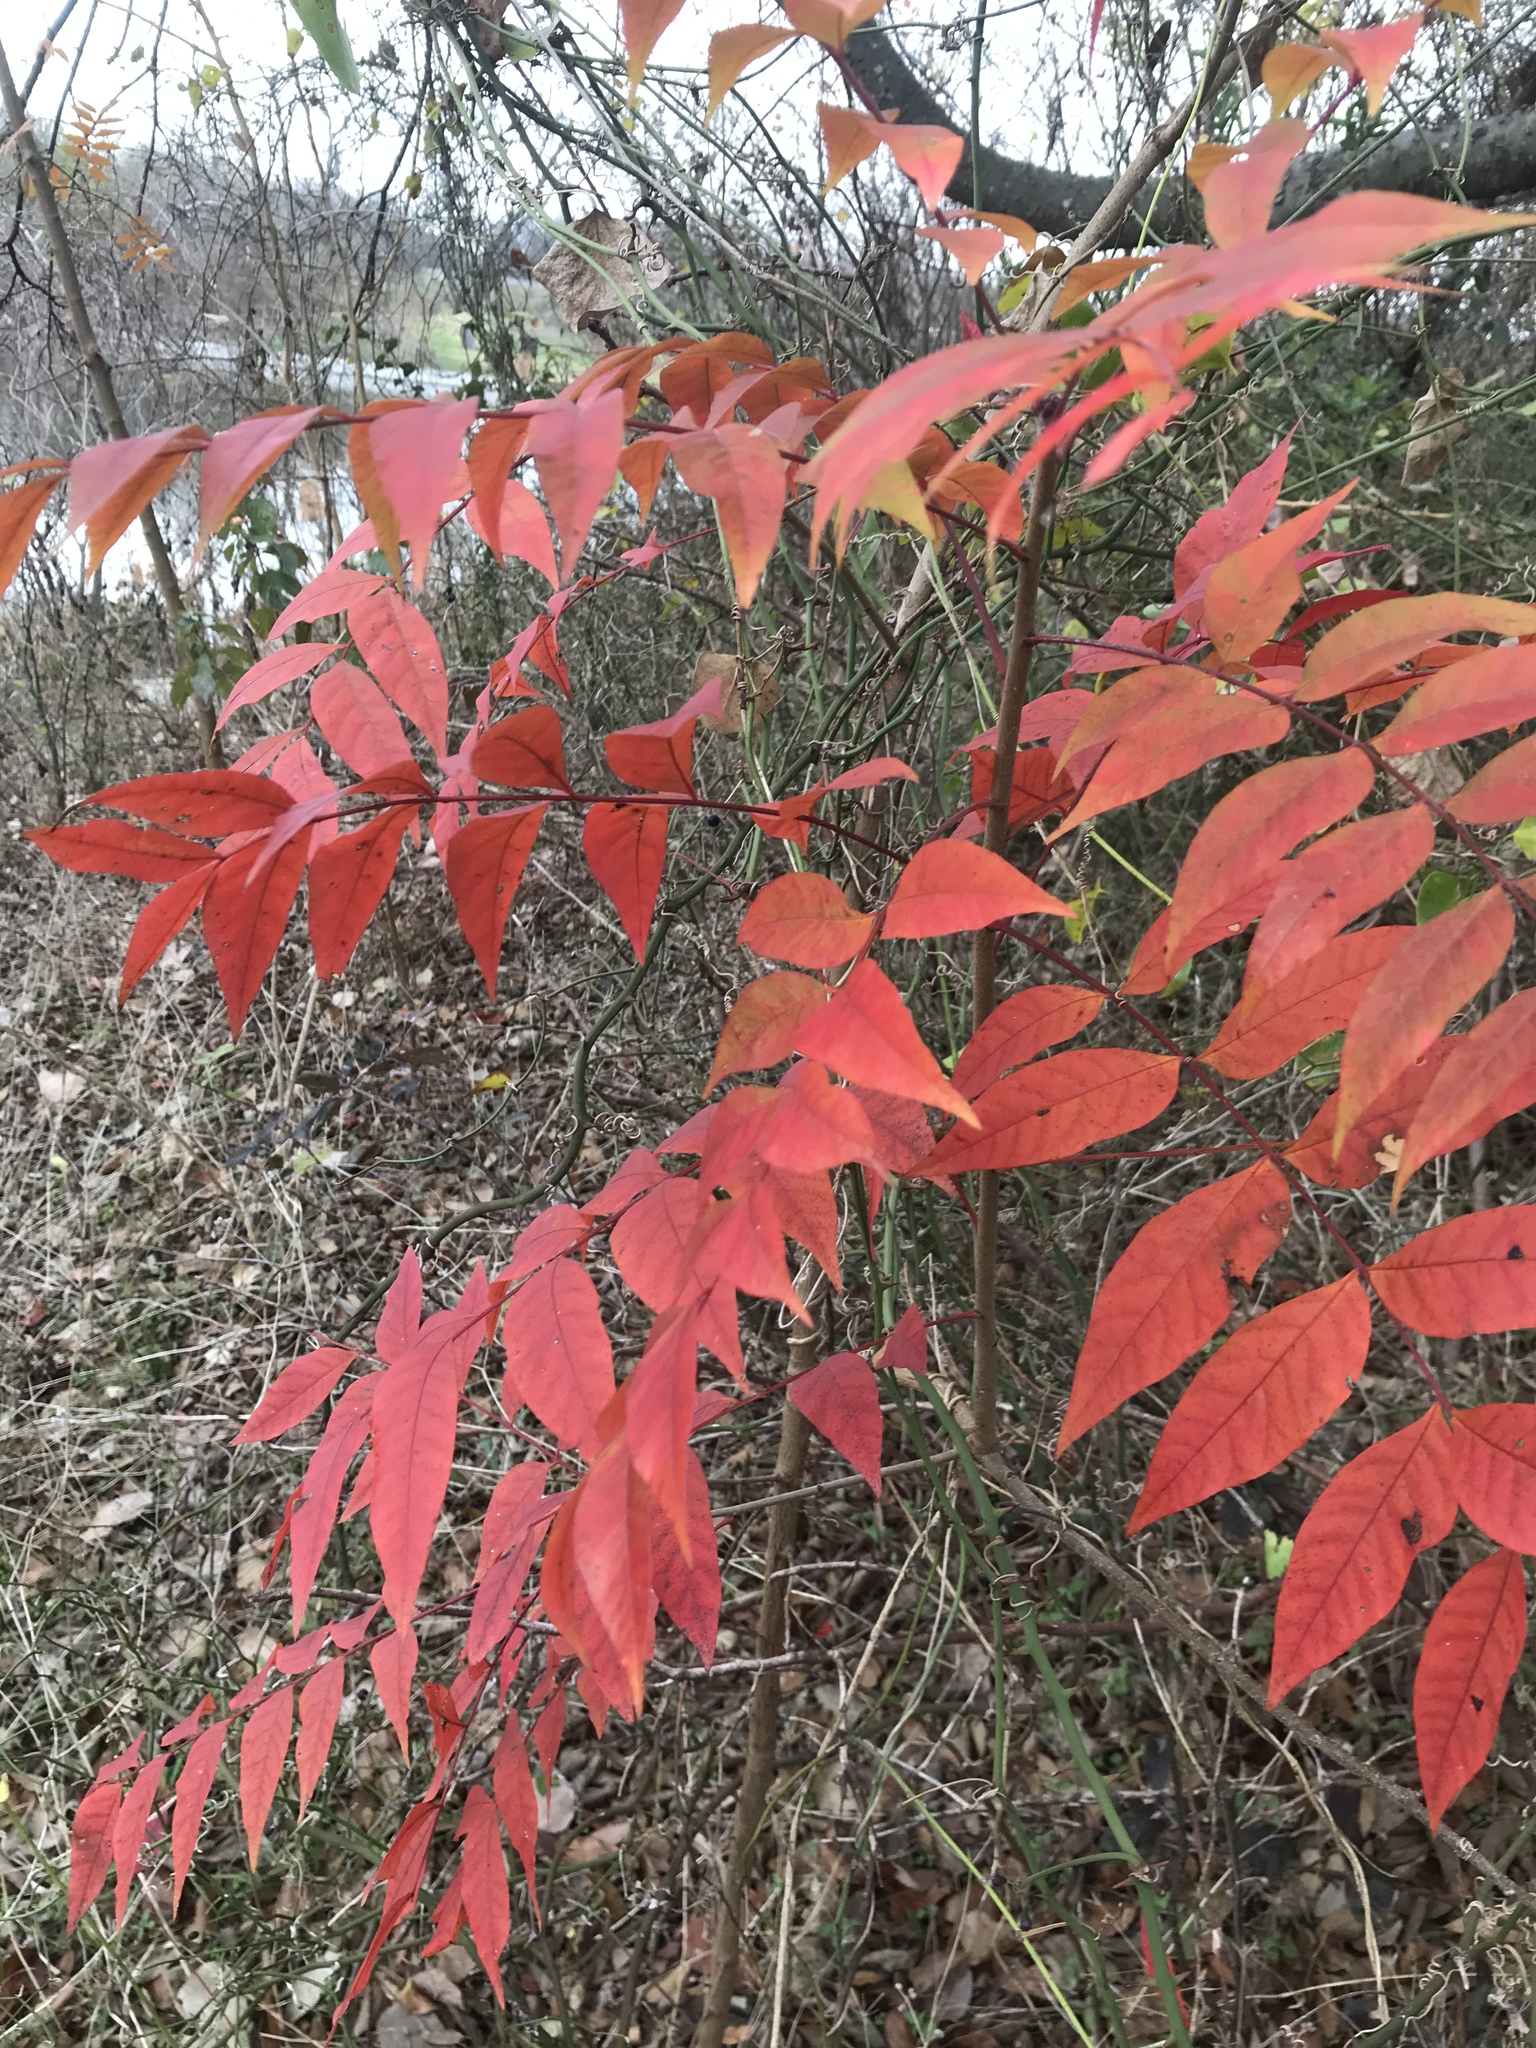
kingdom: Plantae
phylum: Tracheophyta
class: Magnoliopsida
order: Sapindales
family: Anacardiaceae
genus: Pistacia
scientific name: Pistacia chinensis
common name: Chinese pistache
